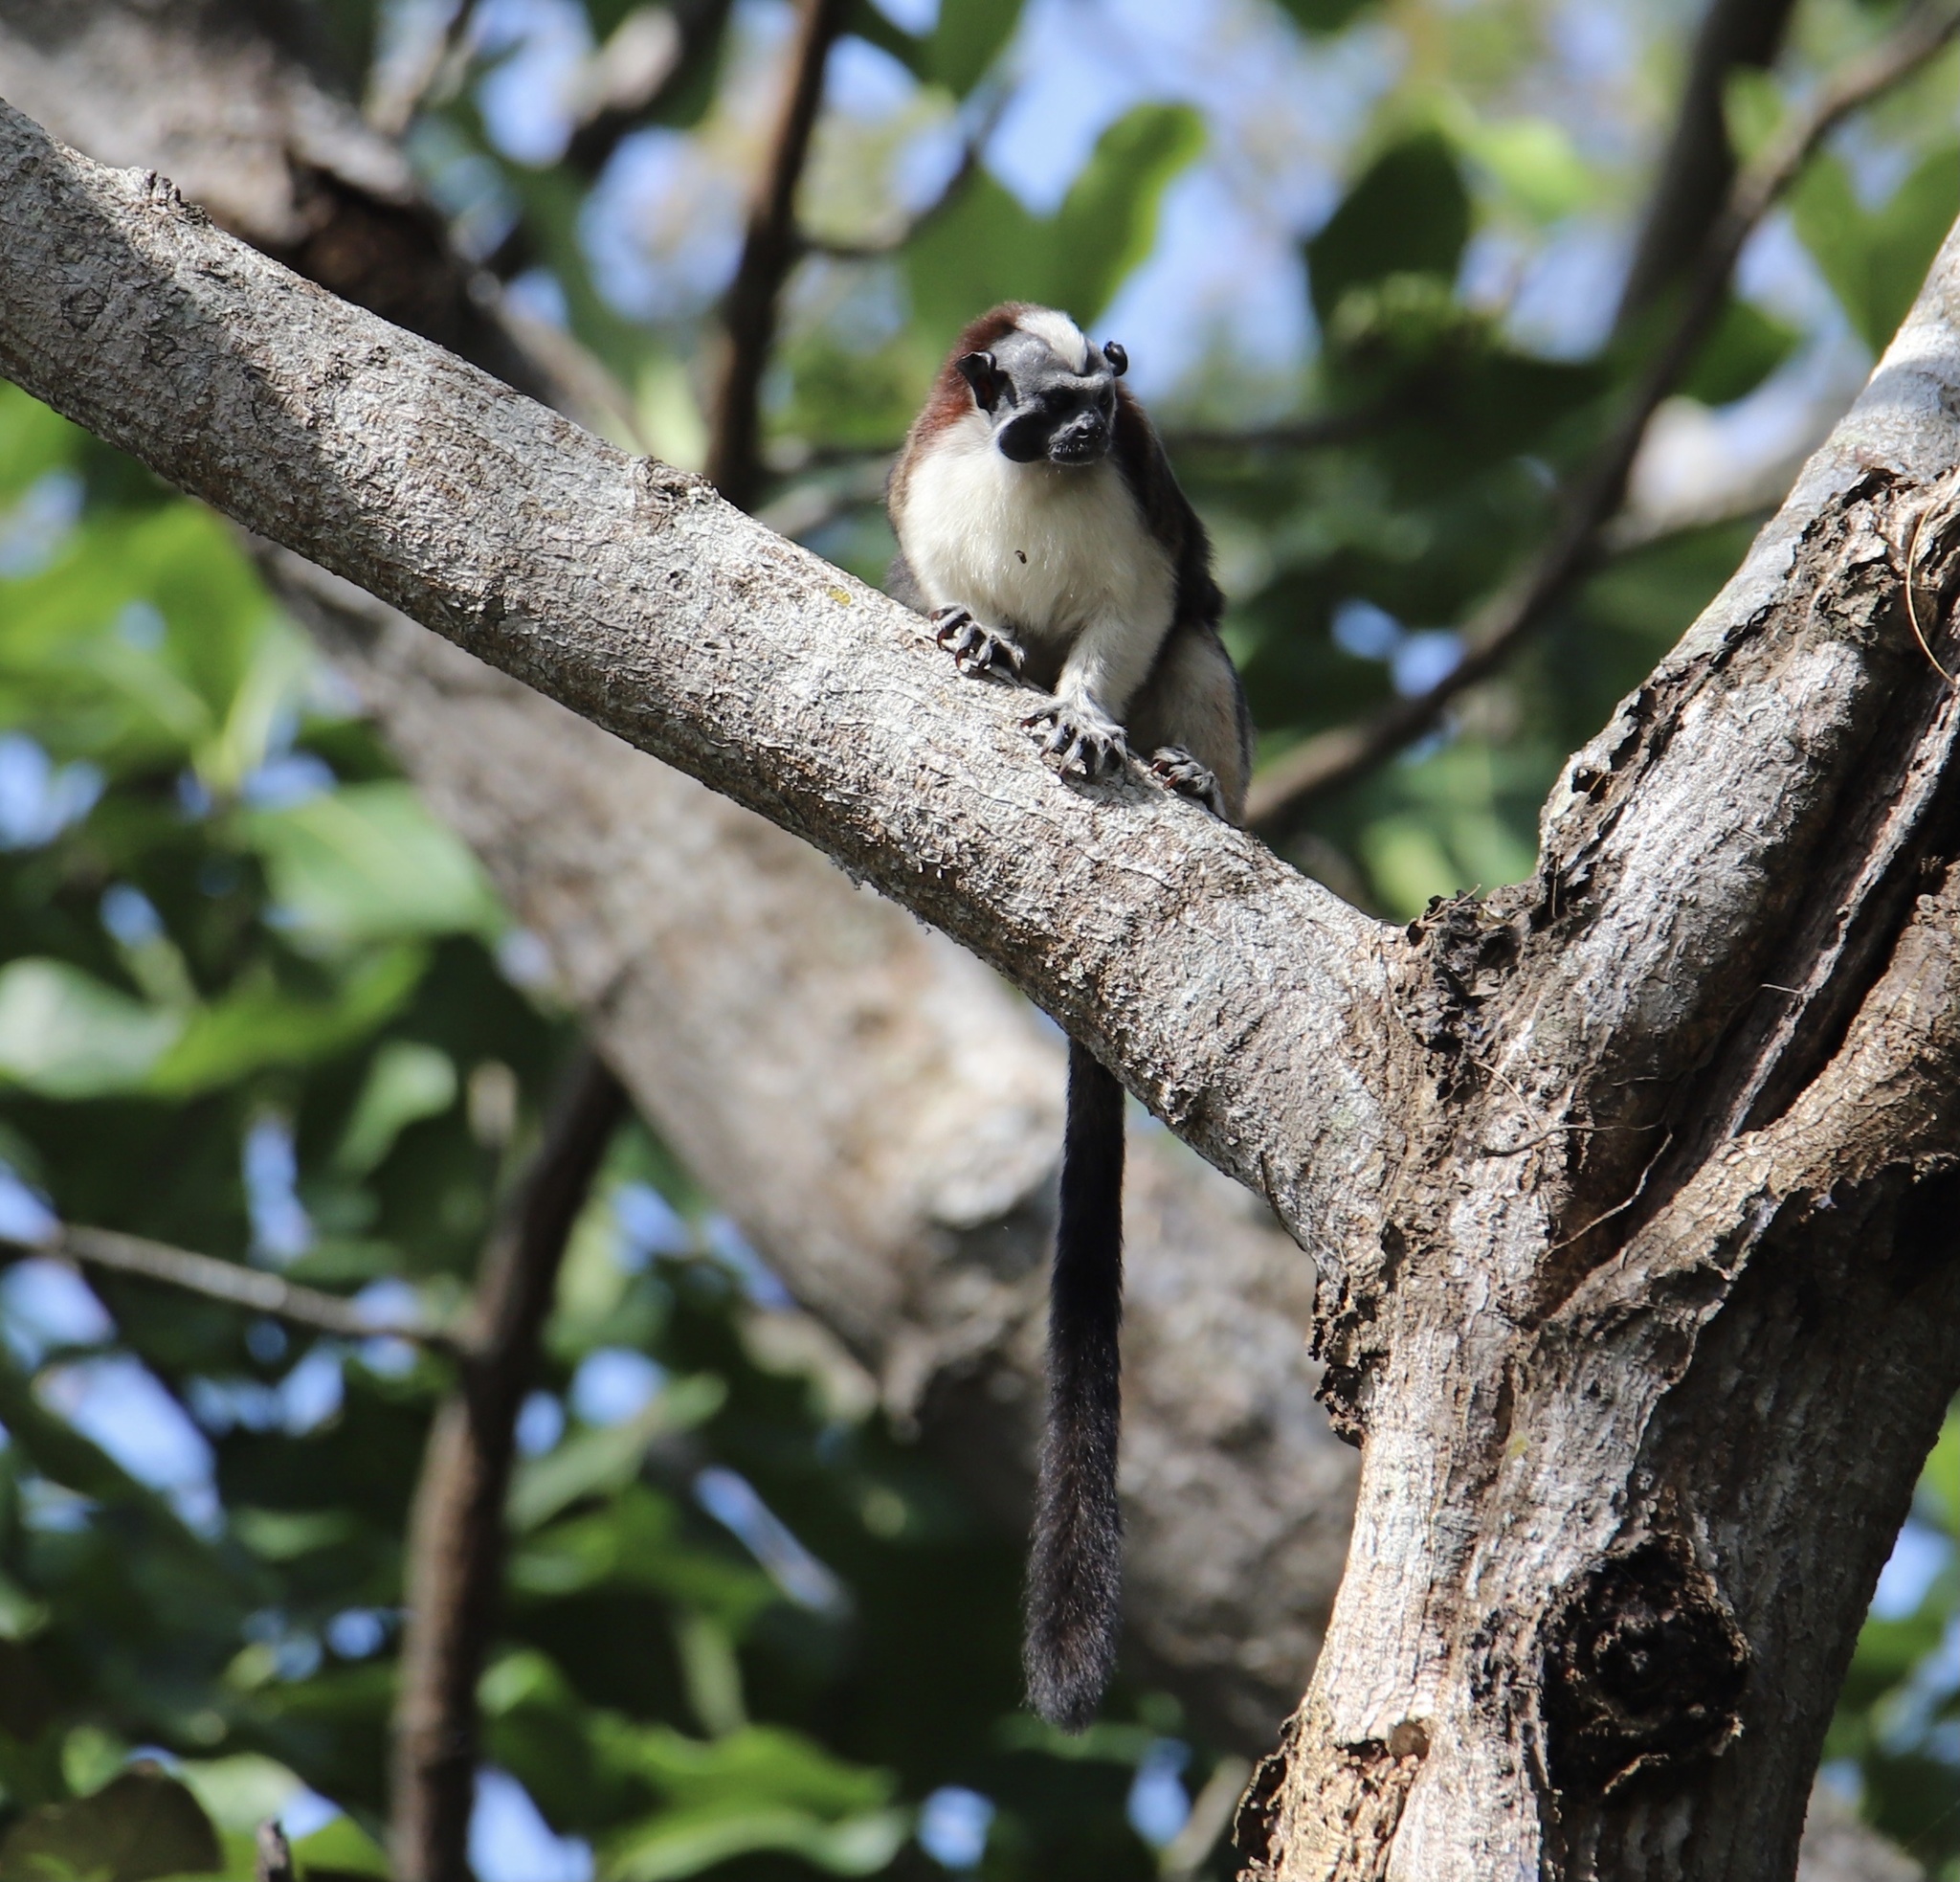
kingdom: Animalia
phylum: Chordata
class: Mammalia
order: Primates
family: Callitrichidae
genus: Saguinus
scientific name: Saguinus geoffroyi
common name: Geoffroy s tamarin
